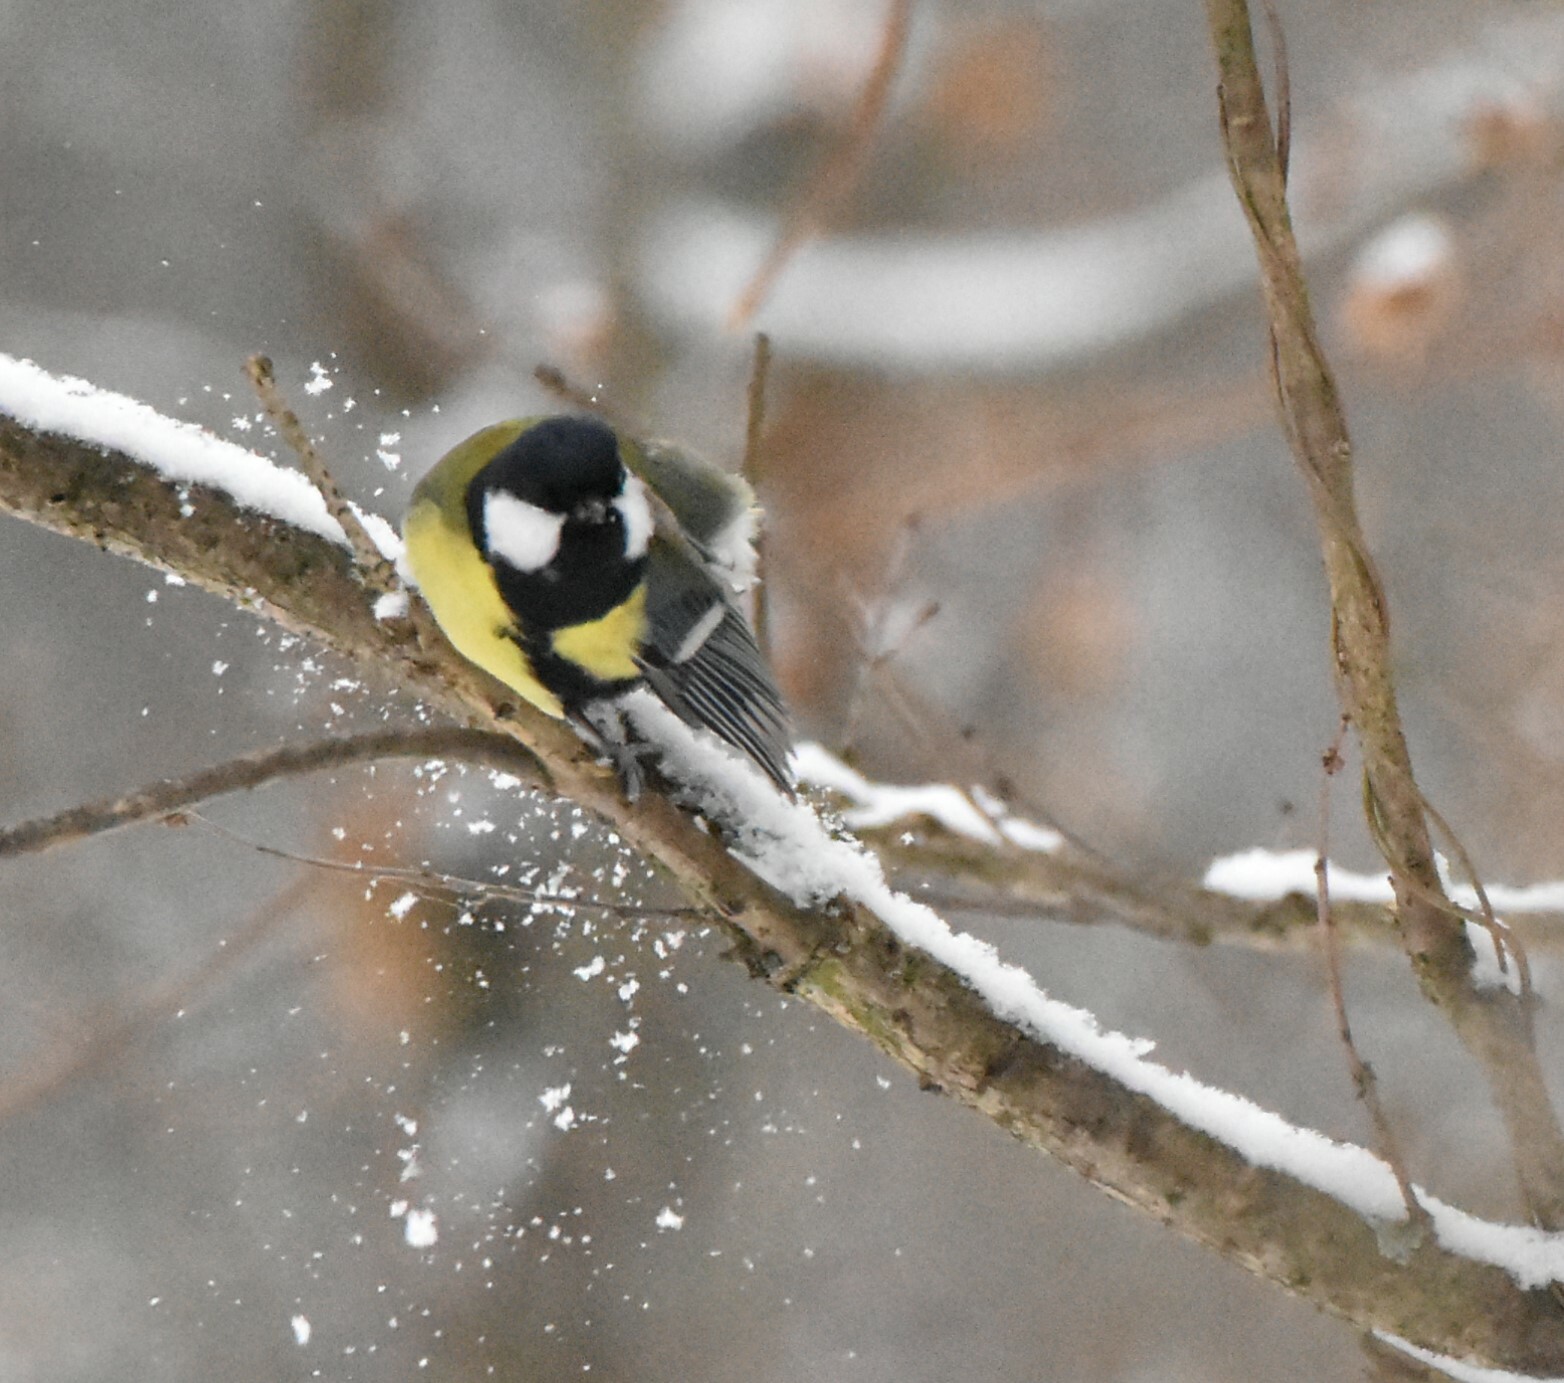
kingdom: Animalia
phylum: Chordata
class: Aves
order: Passeriformes
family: Paridae
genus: Parus
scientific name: Parus major
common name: Great tit
